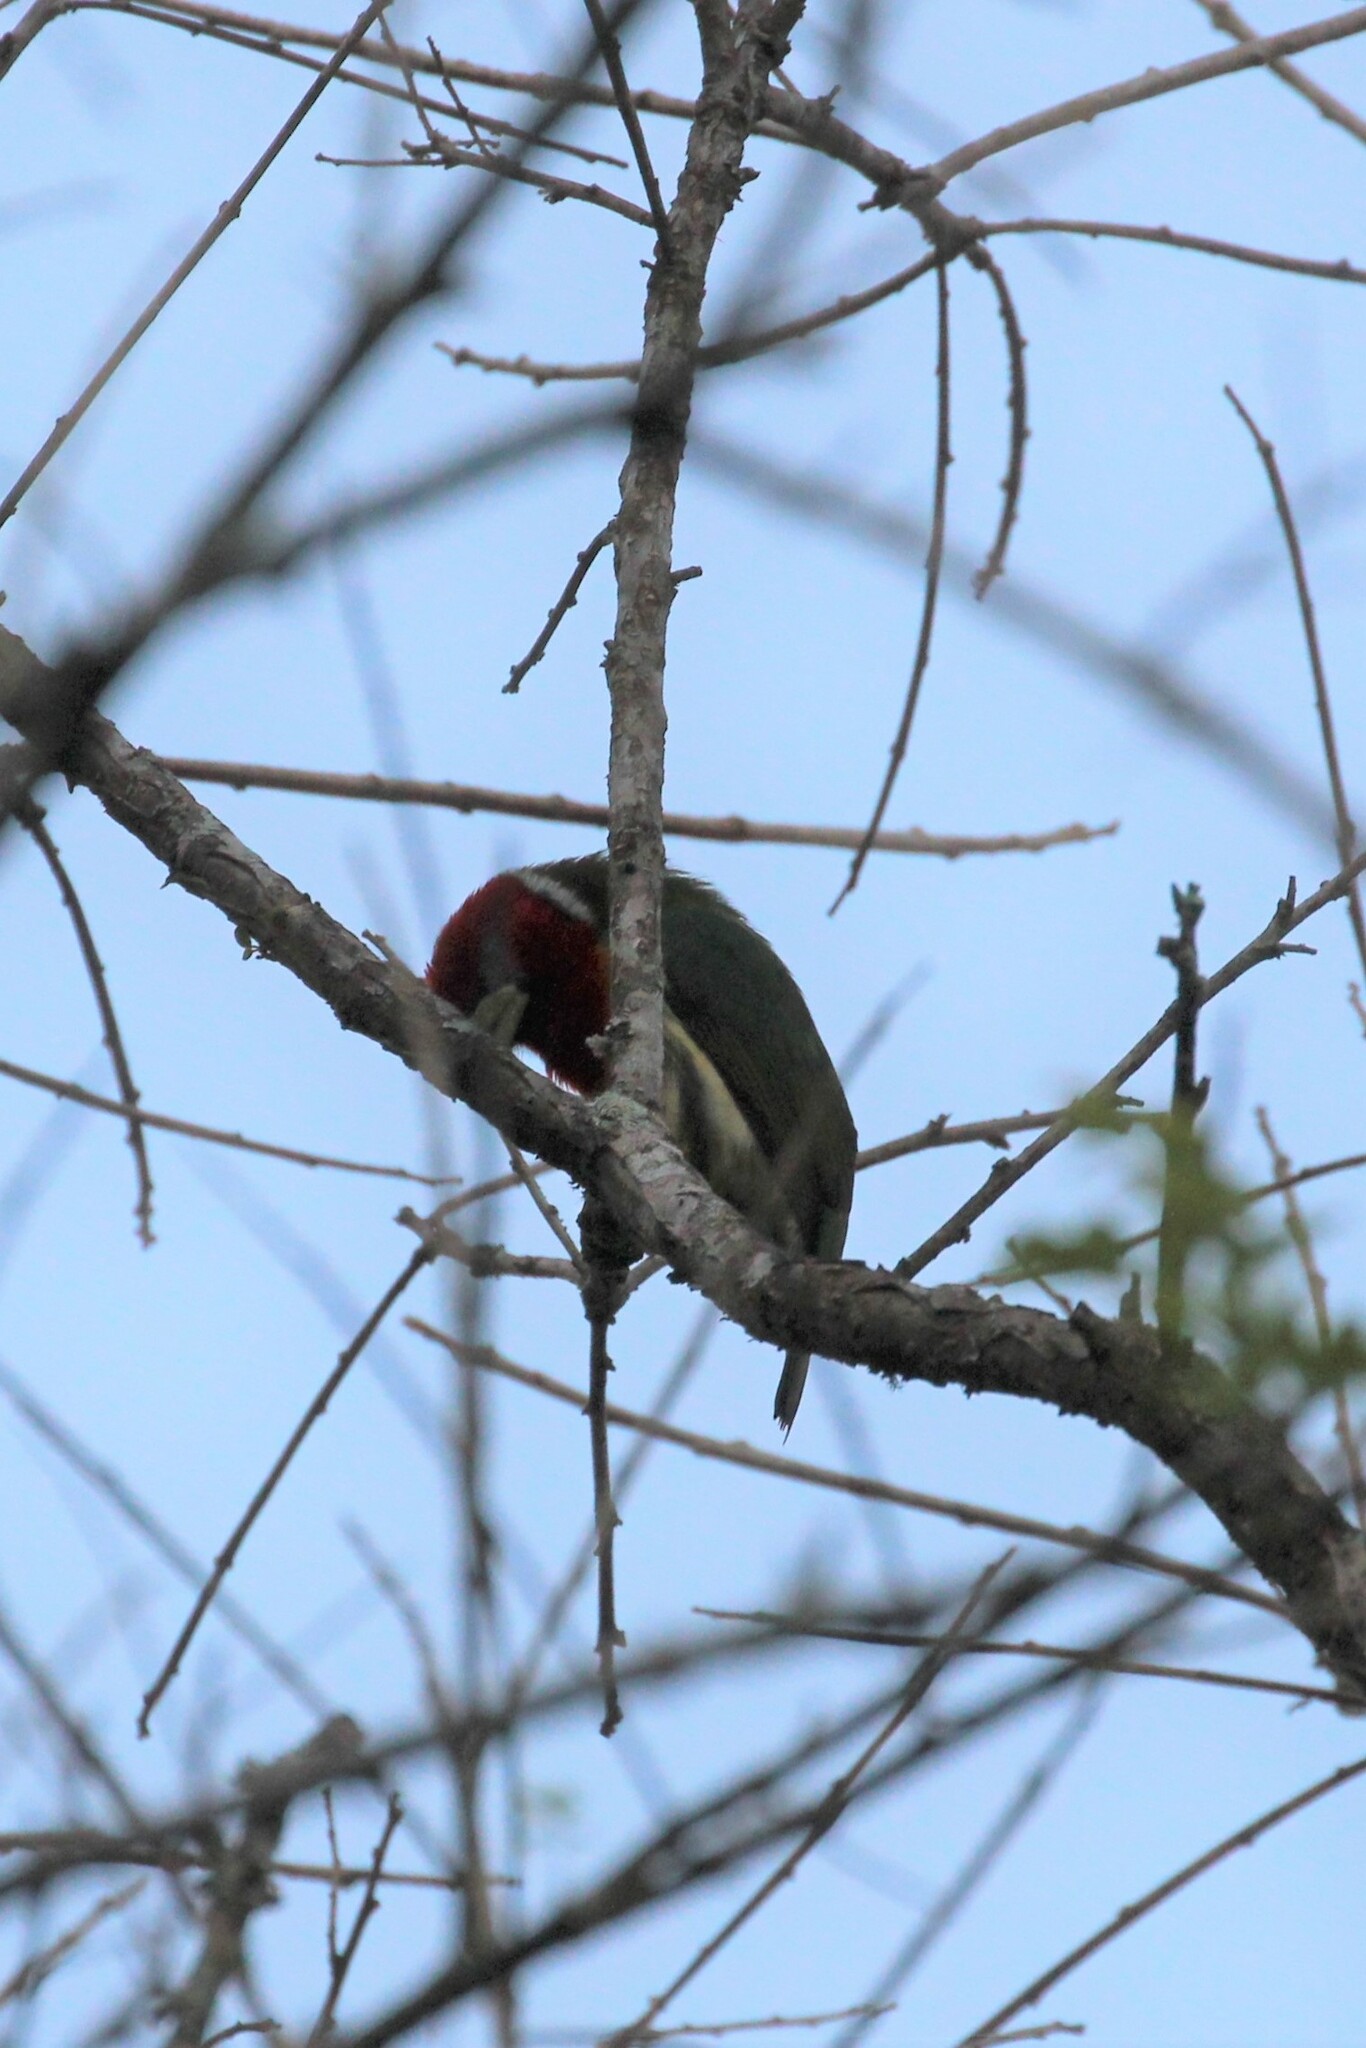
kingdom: Animalia
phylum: Chordata
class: Aves
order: Piciformes
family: Capitonidae
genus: Eubucco
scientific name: Eubucco bourcierii
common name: Red-headed barbet
